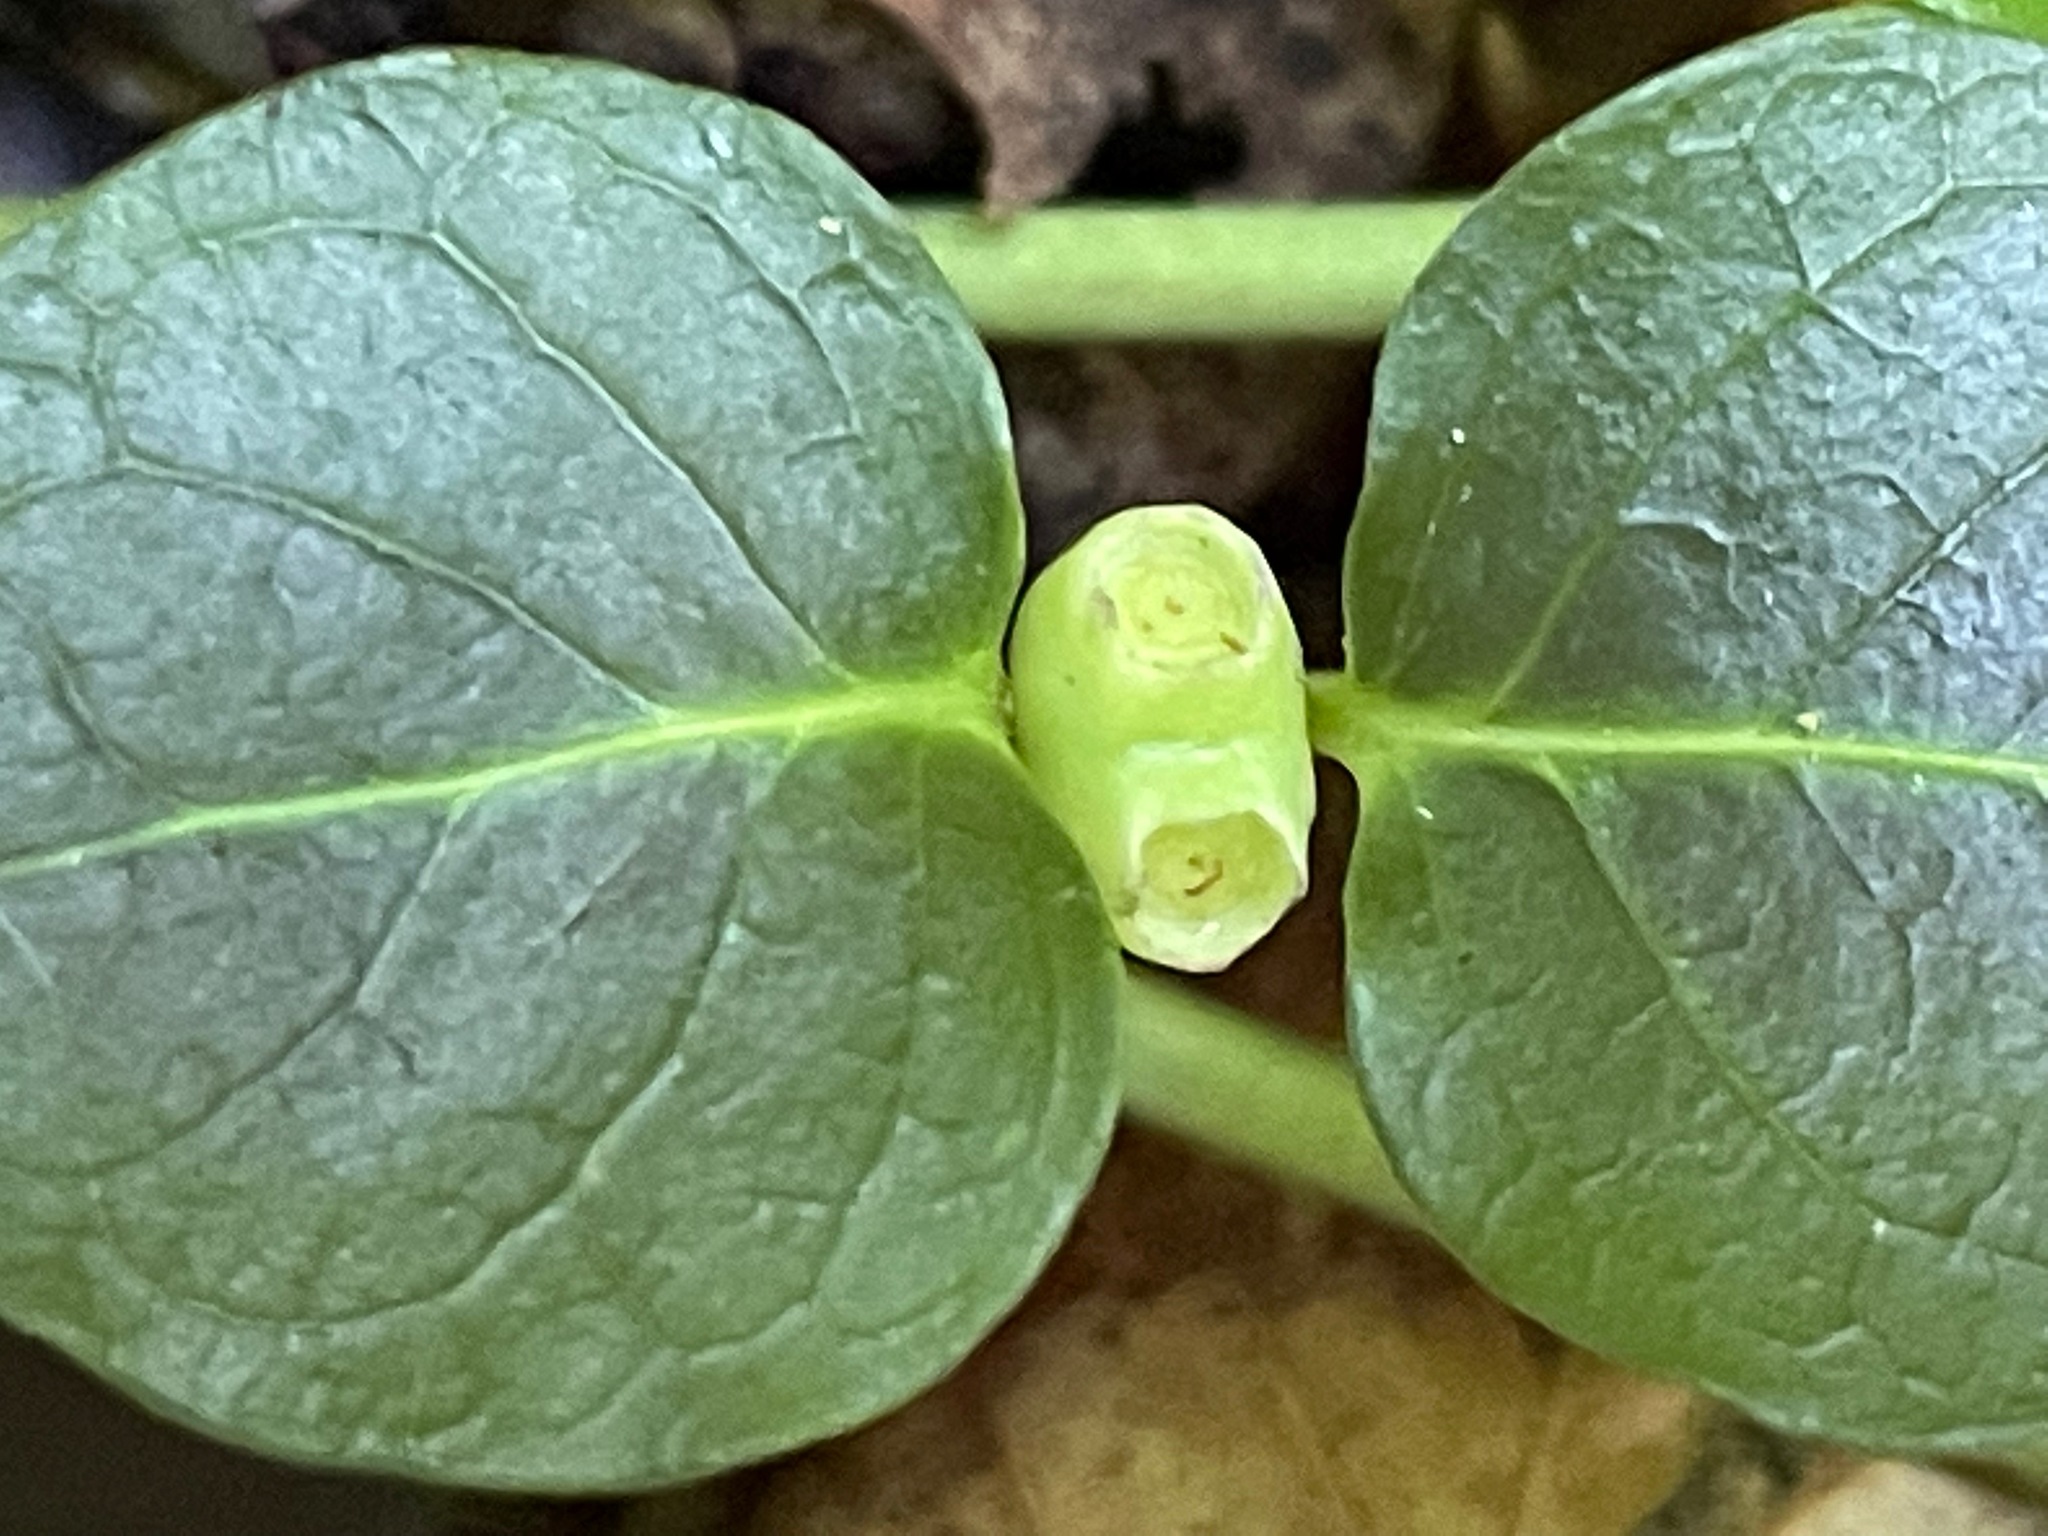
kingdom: Plantae
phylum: Tracheophyta
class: Magnoliopsida
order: Gentianales
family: Rubiaceae
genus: Mitchella
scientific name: Mitchella repens
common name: Partridge-berry
